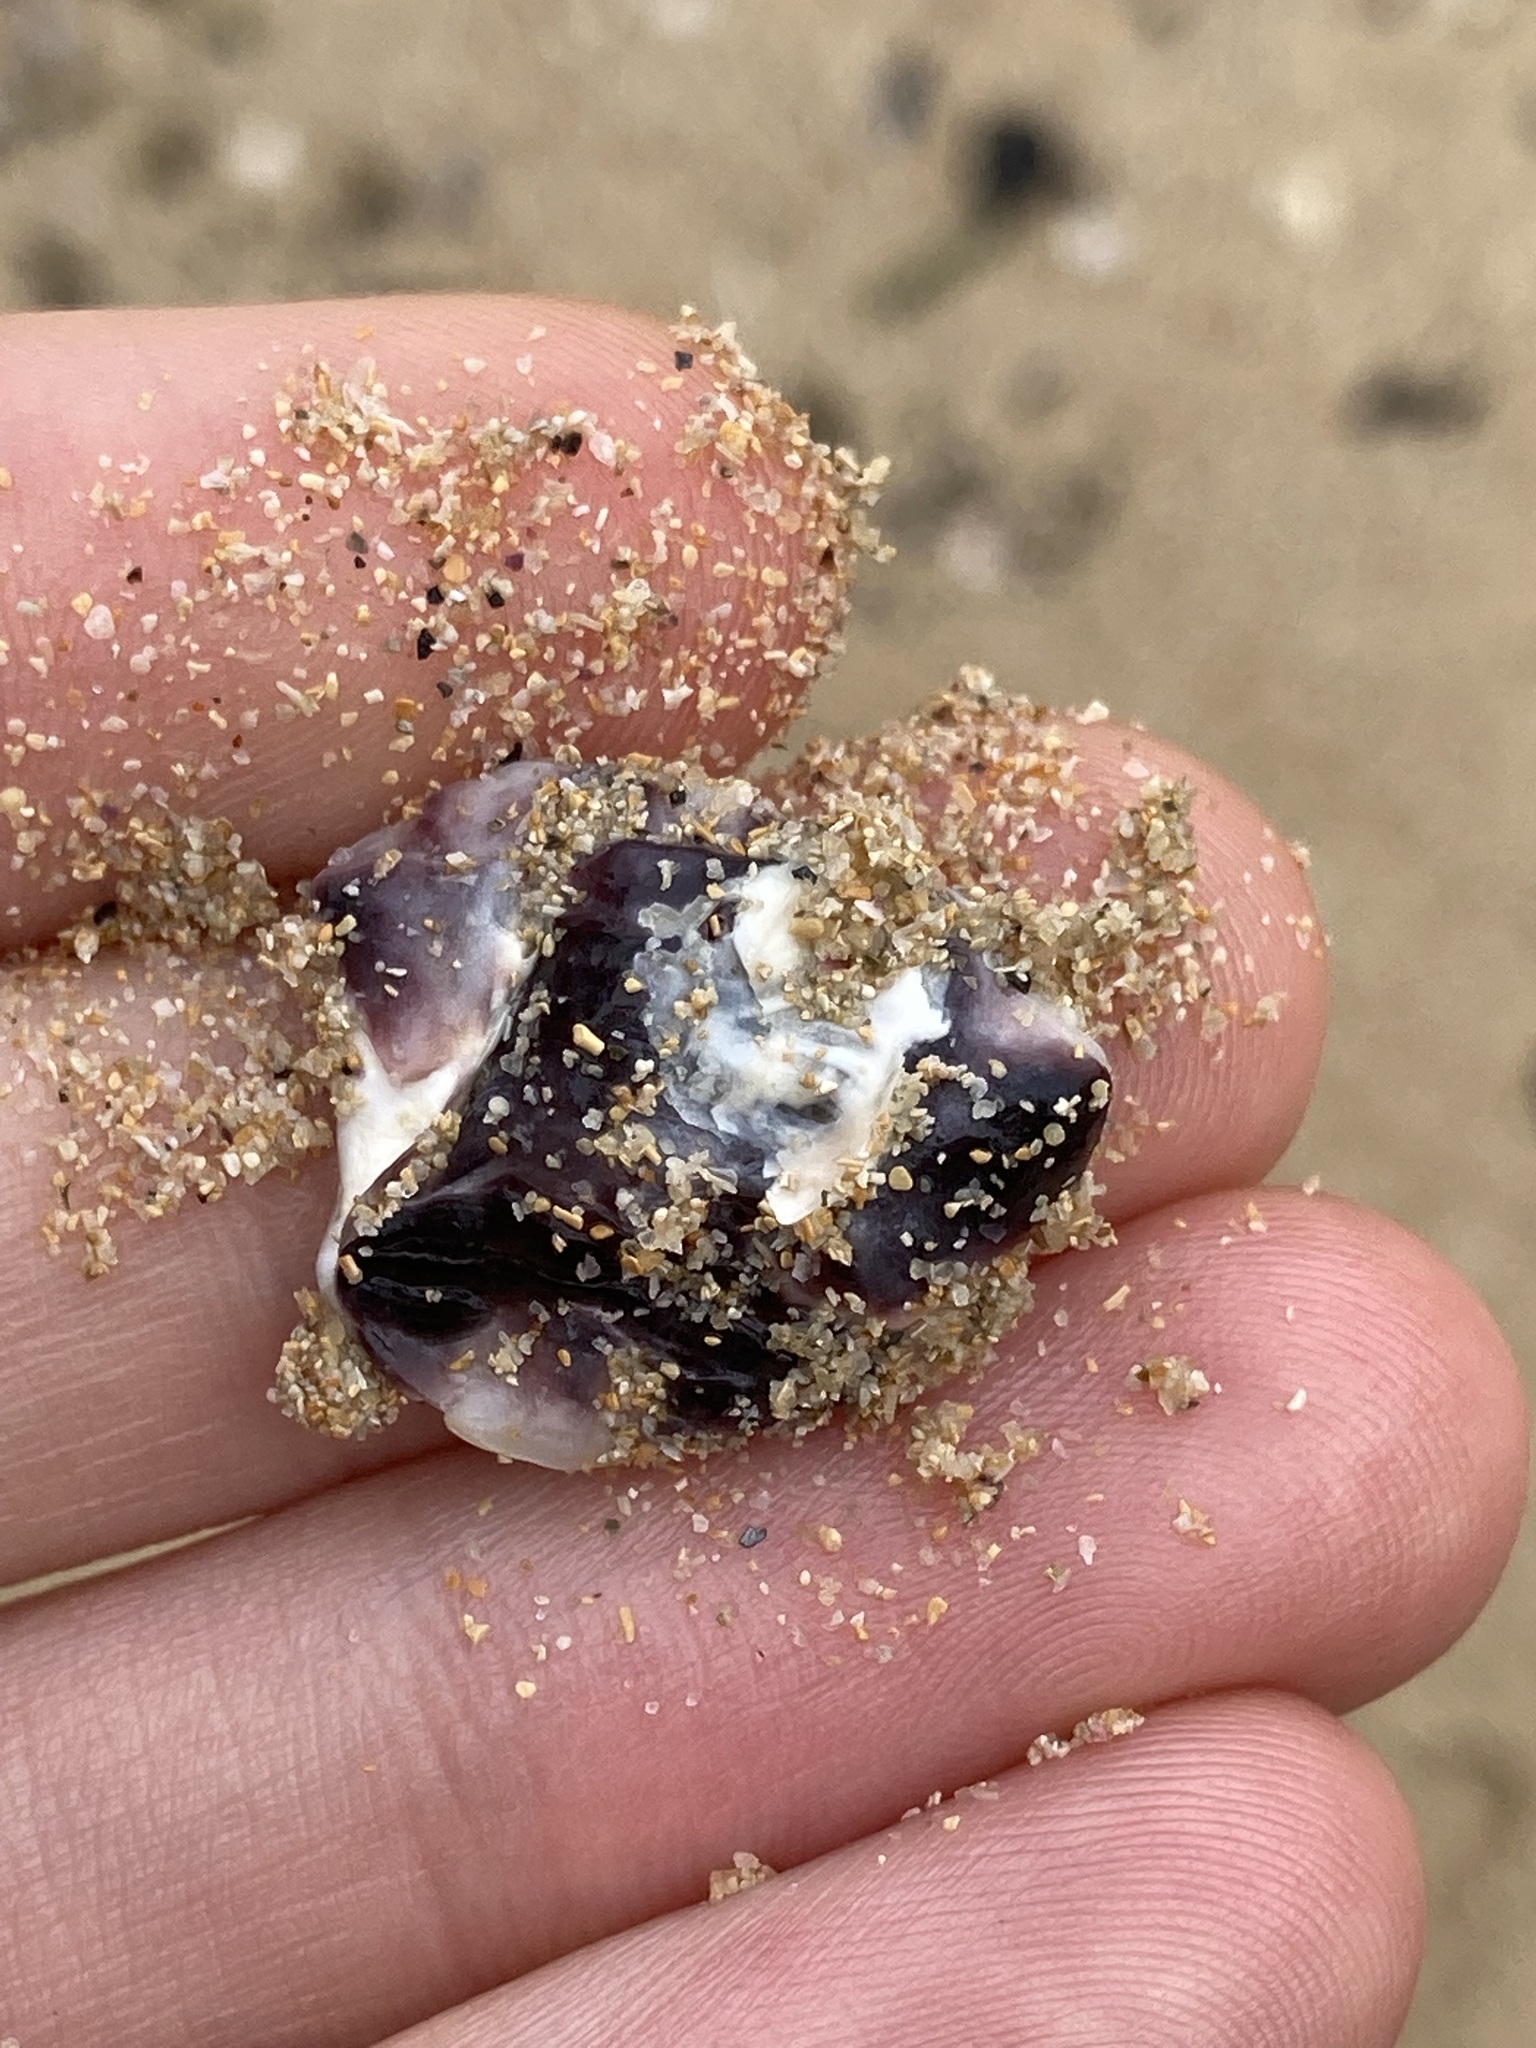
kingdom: Animalia
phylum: Mollusca
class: Bivalvia
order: Ostreida
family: Ostreidae
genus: Saccostrea
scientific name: Saccostrea glomerata
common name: Sydney cupped oyster
